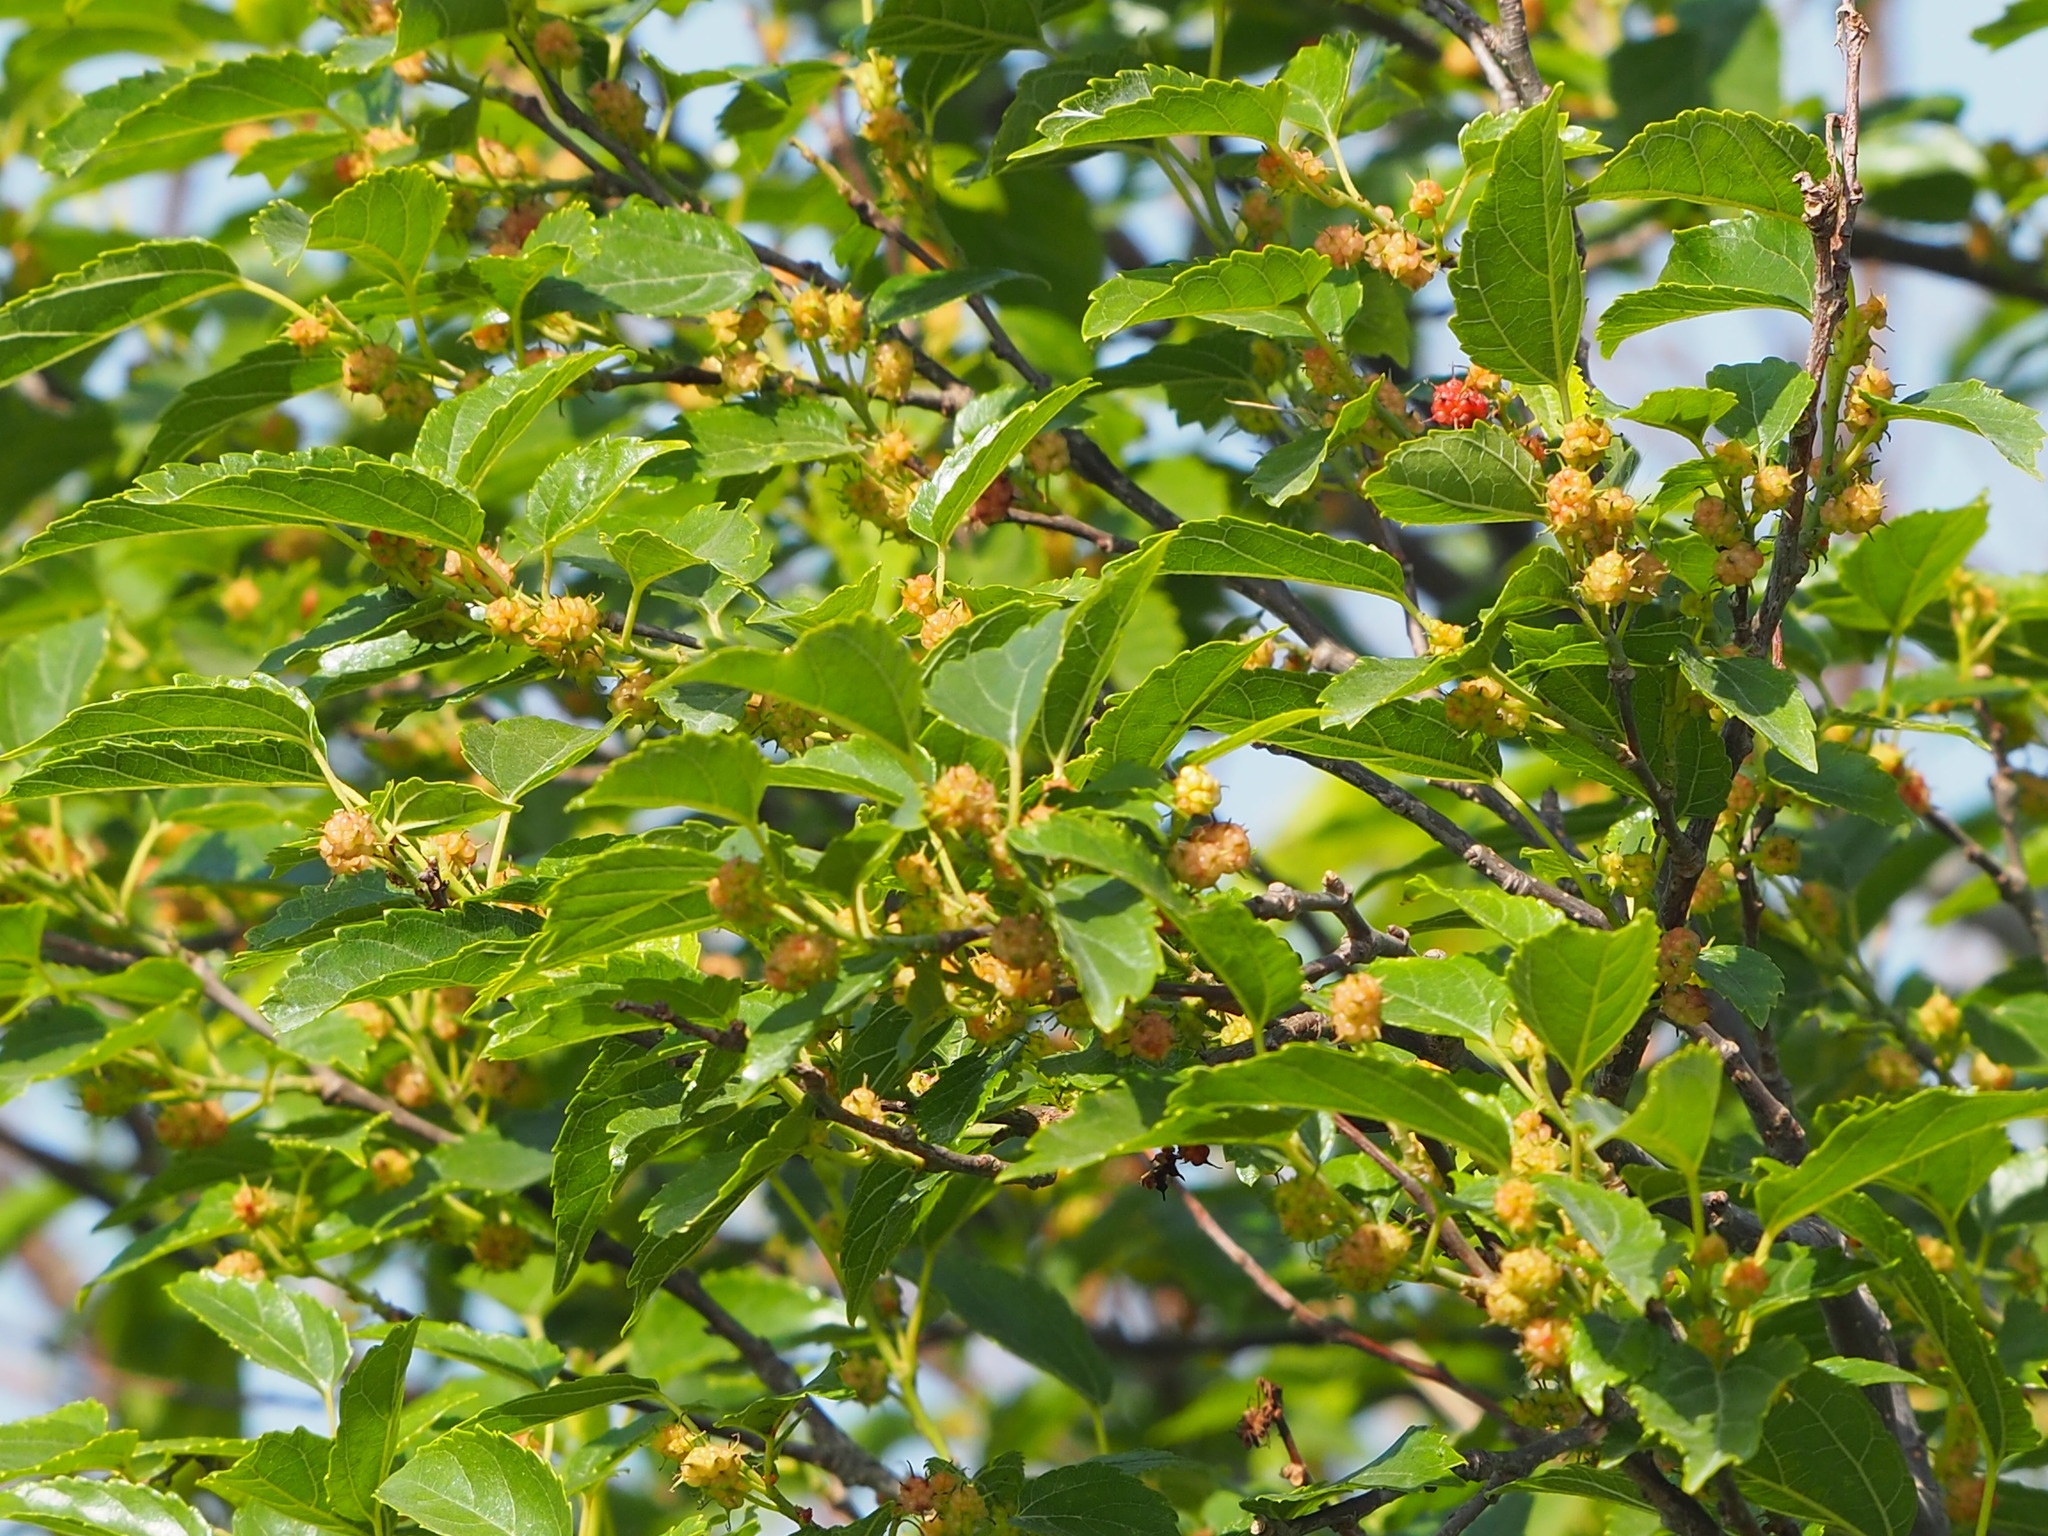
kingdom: Plantae
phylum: Tracheophyta
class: Magnoliopsida
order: Rosales
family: Moraceae
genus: Morus
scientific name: Morus indica
